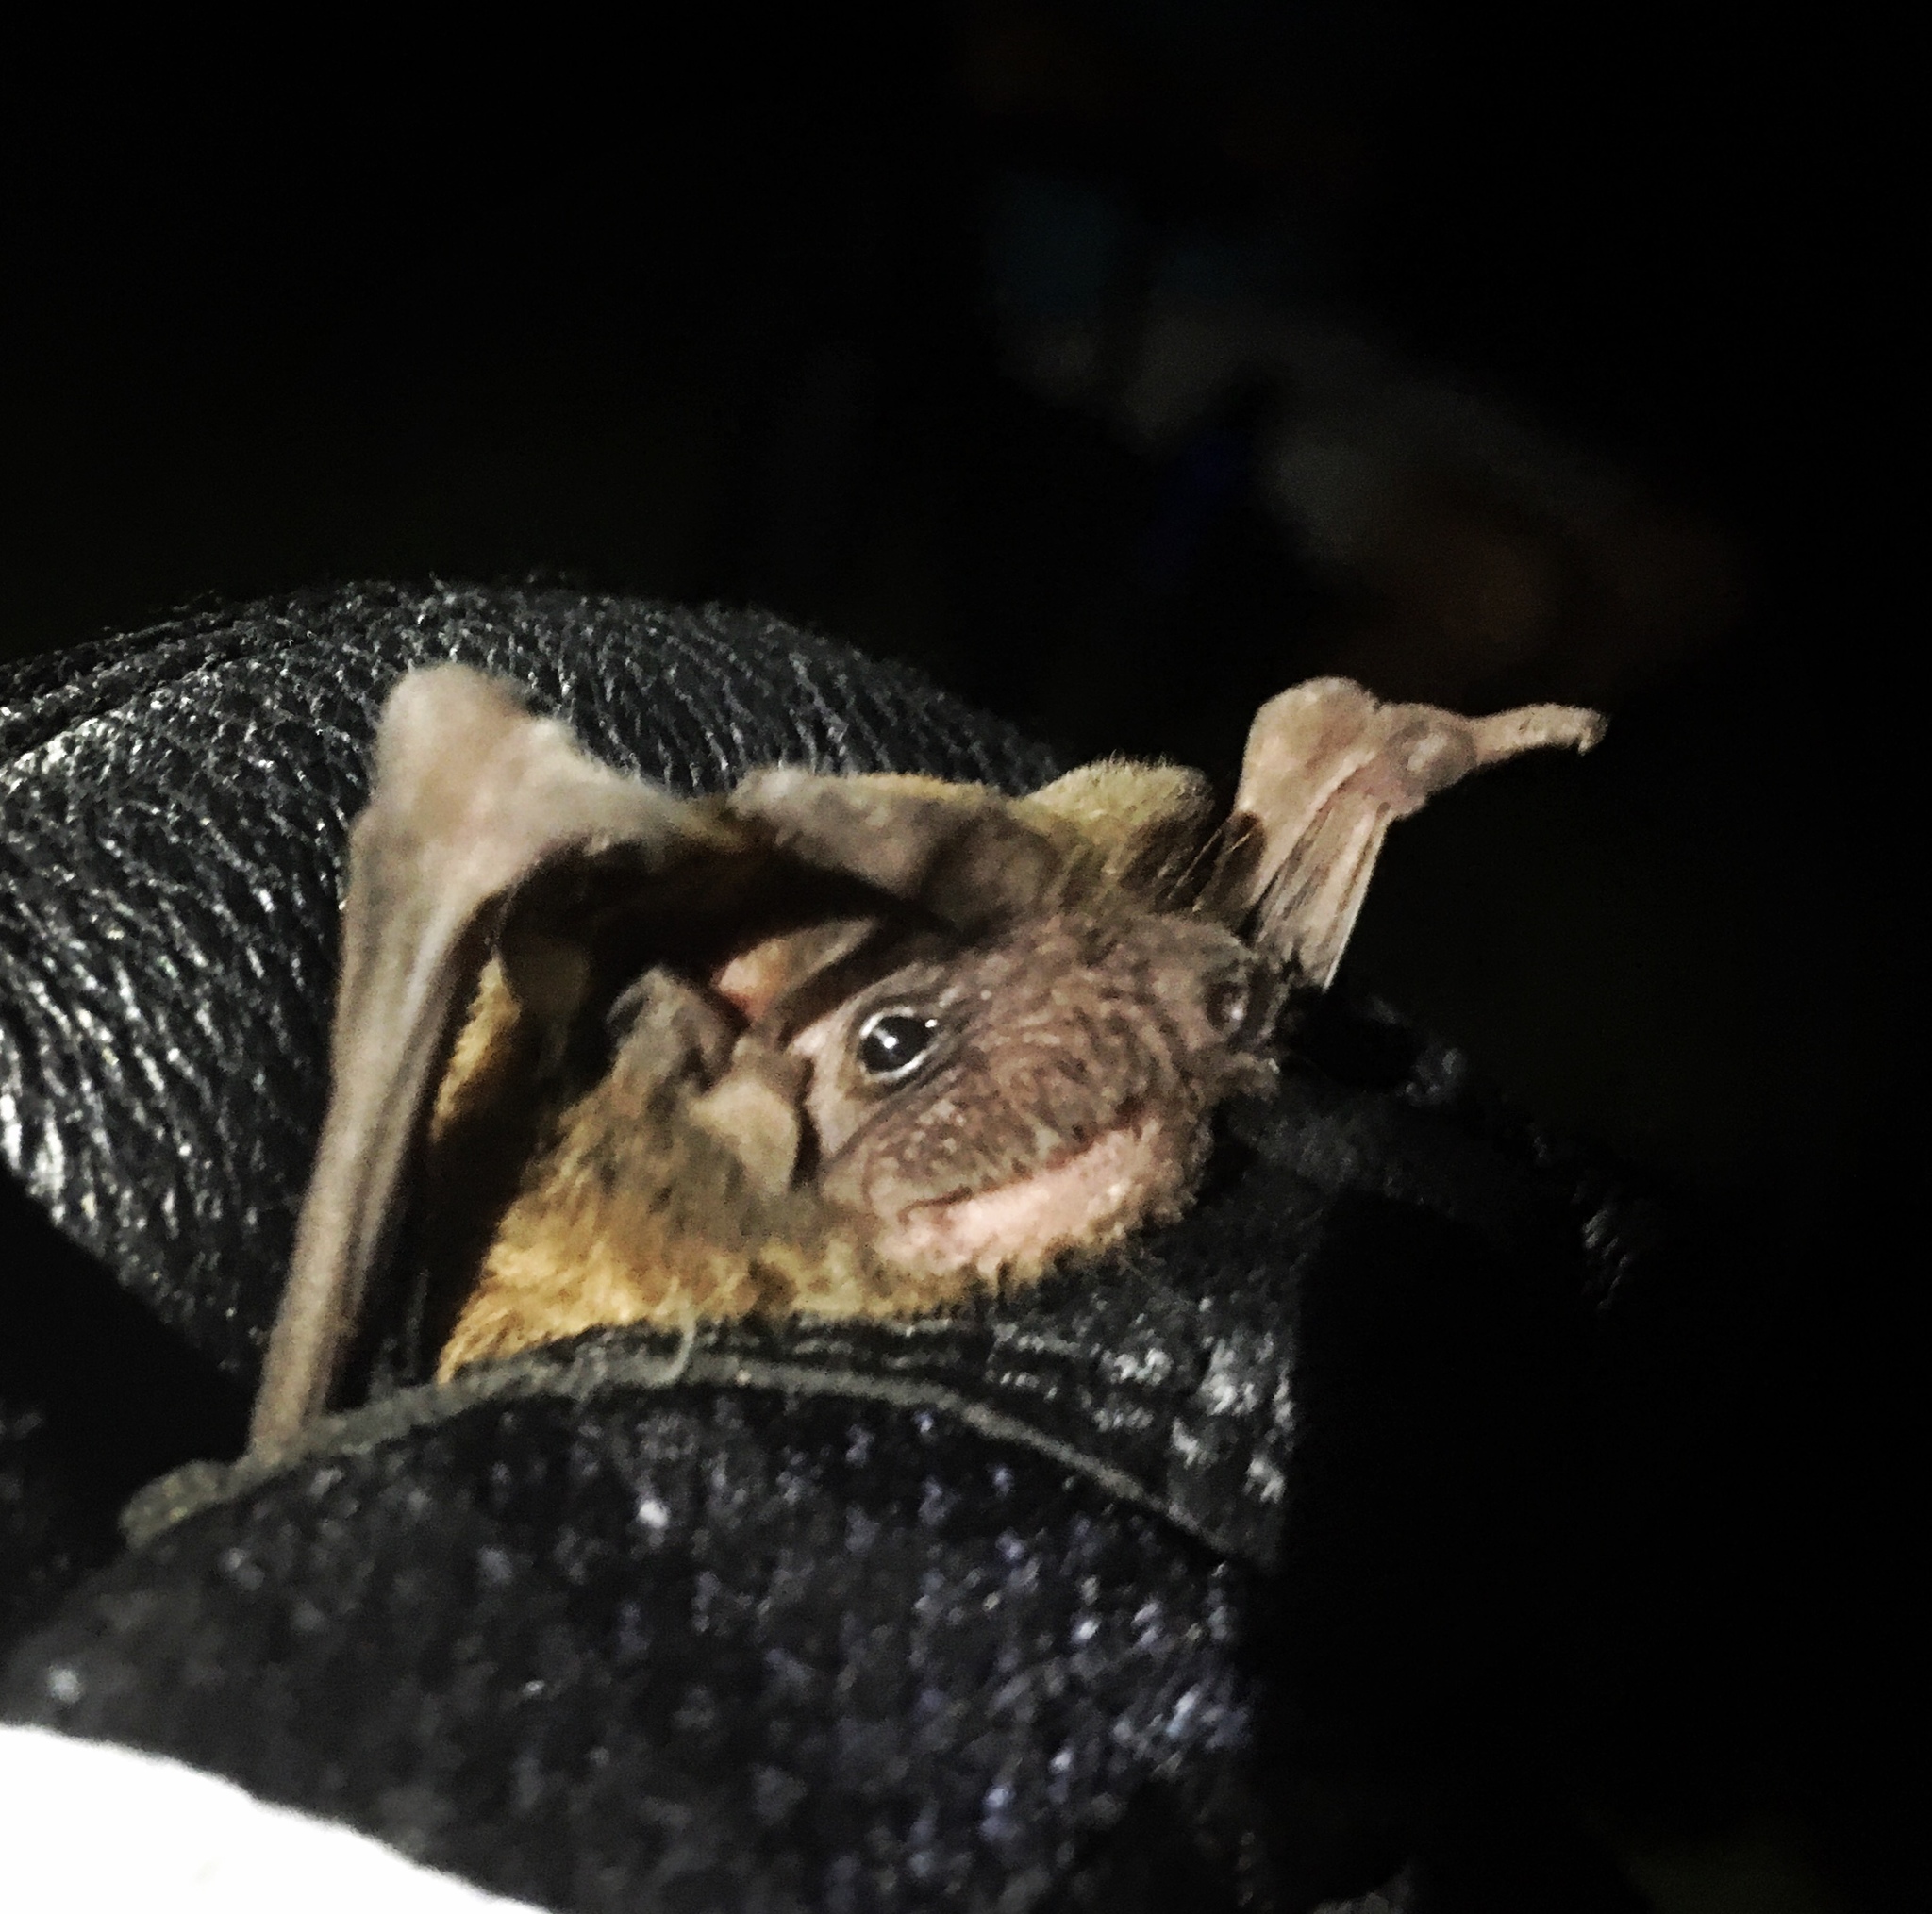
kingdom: Animalia
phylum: Chordata
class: Mammalia
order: Chiroptera
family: Molossidae
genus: Tadarida
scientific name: Tadarida brasiliensis
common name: Mexican free-tailed bat
